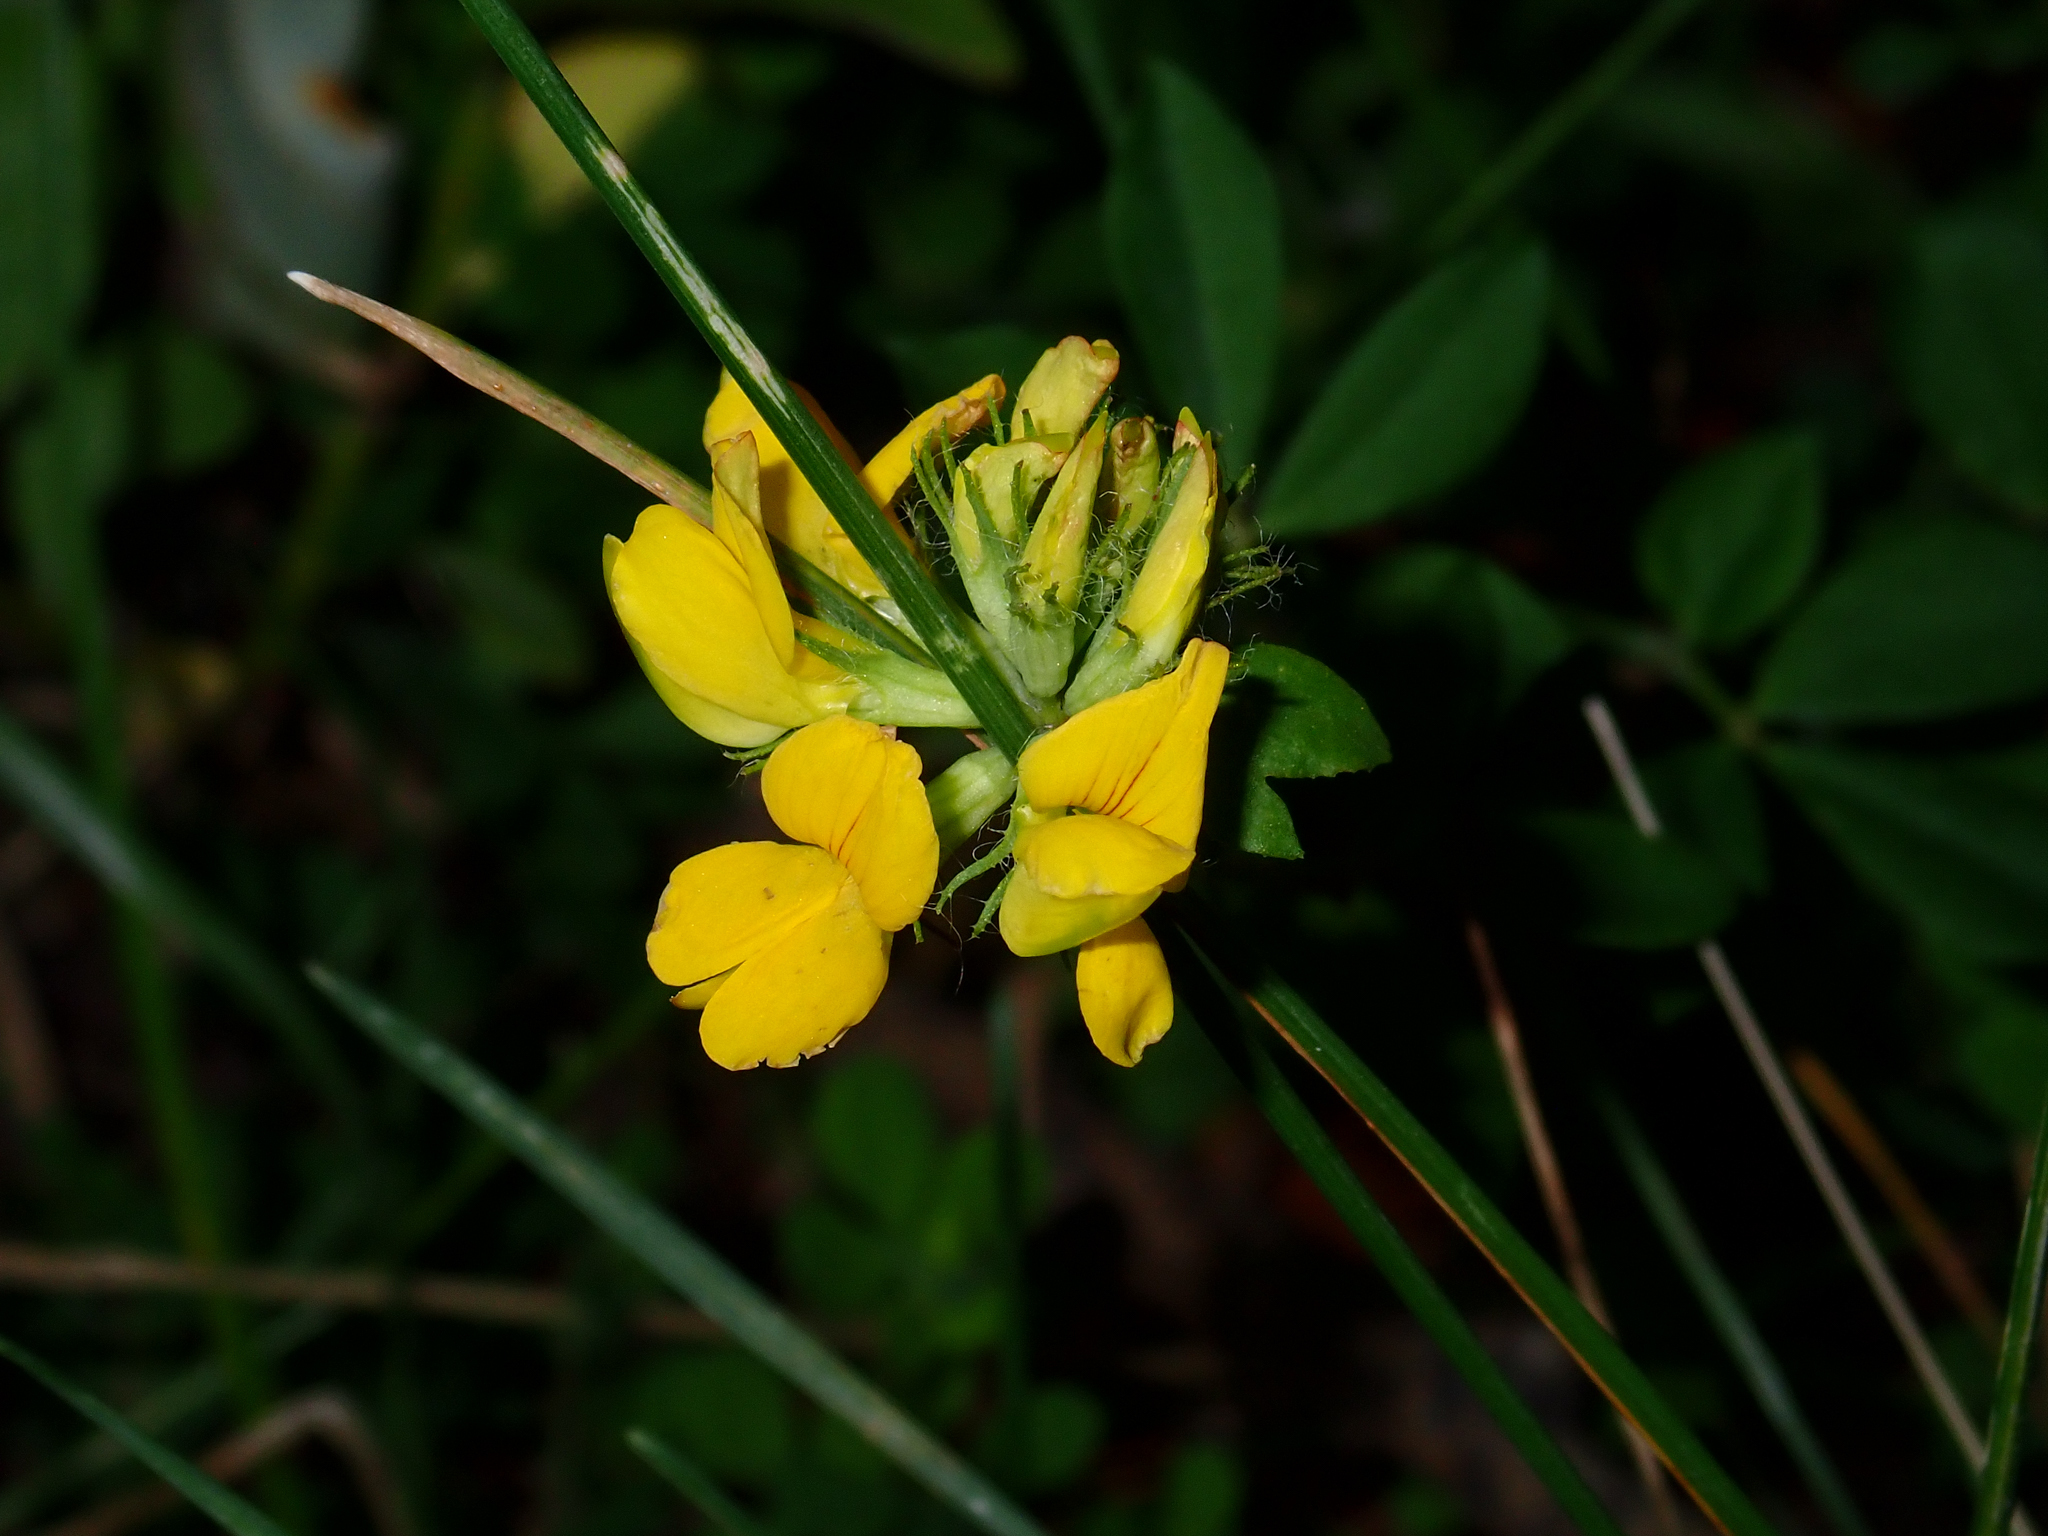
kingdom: Plantae
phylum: Tracheophyta
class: Magnoliopsida
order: Fabales
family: Fabaceae
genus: Lotus
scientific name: Lotus pedunculatus
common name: Greater birdsfoot-trefoil
